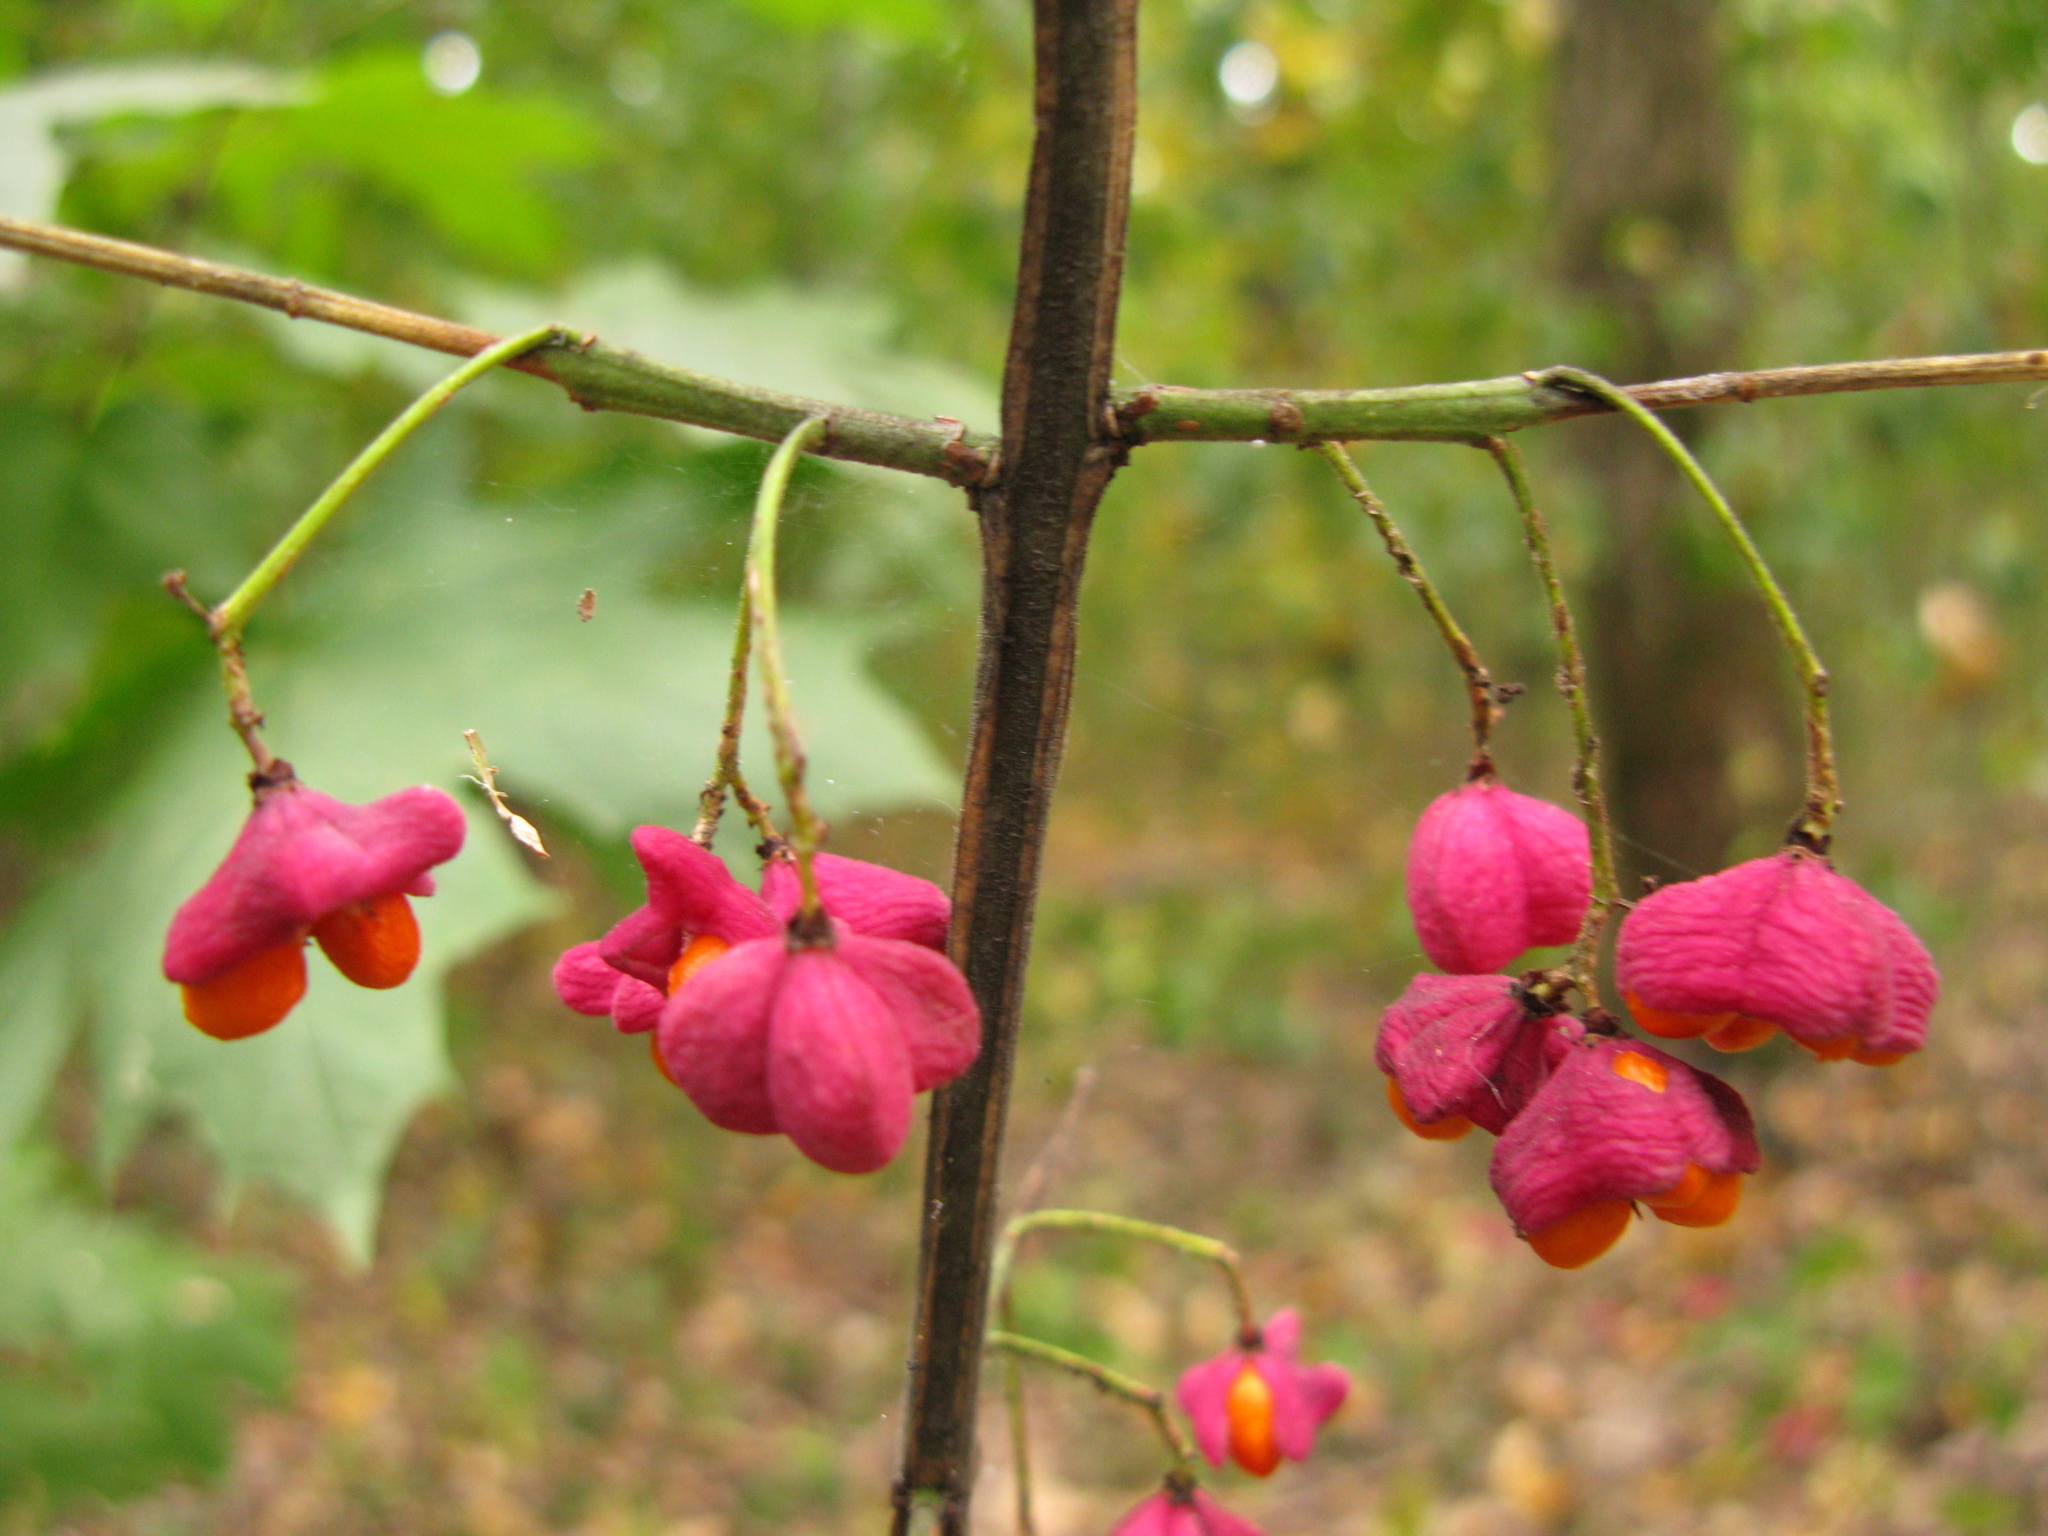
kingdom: Plantae
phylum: Tracheophyta
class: Magnoliopsida
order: Celastrales
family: Celastraceae
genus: Euonymus
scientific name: Euonymus europaeus
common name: Spindle
